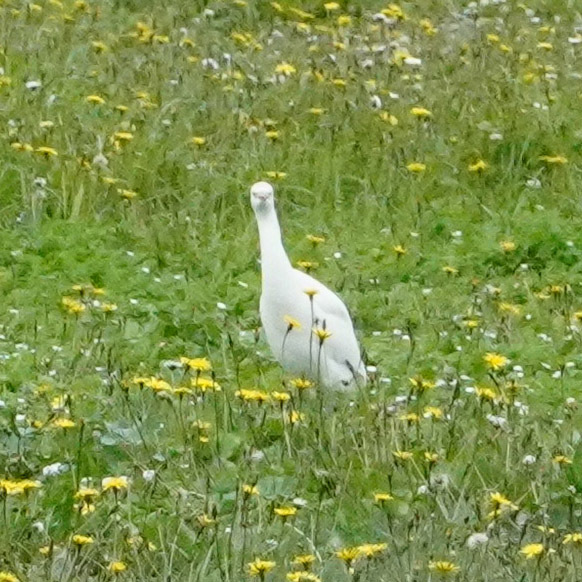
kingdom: Animalia
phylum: Chordata
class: Aves
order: Pelecaniformes
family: Ardeidae
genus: Bubulcus
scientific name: Bubulcus ibis
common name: Cattle egret
